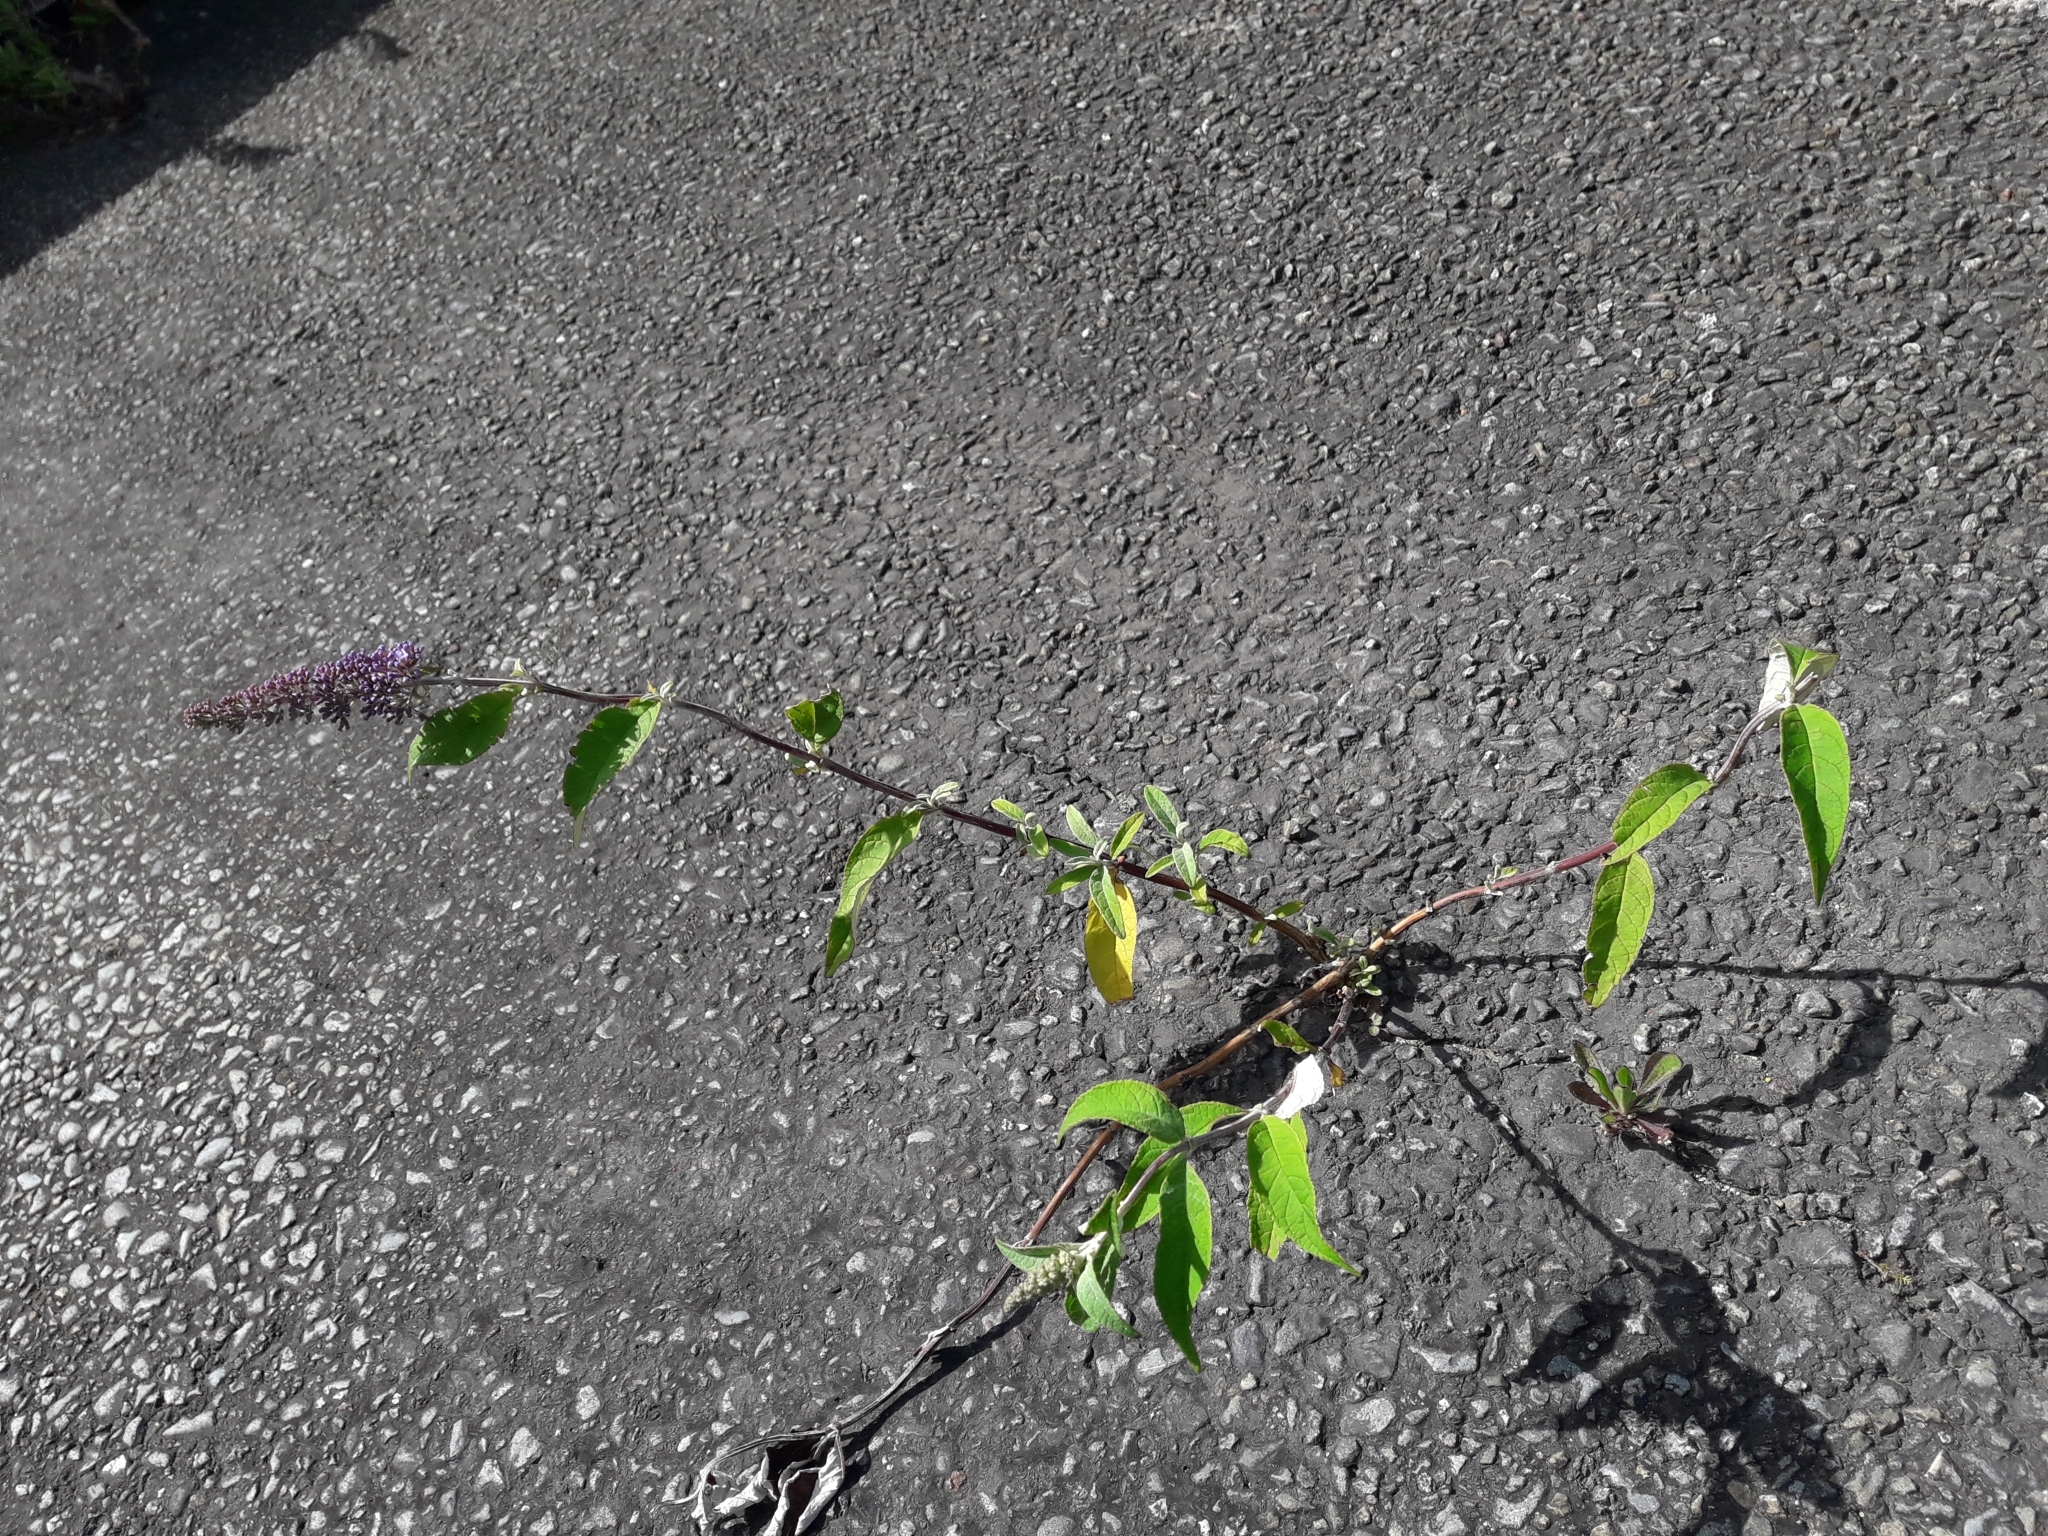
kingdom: Plantae
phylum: Tracheophyta
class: Magnoliopsida
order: Lamiales
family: Scrophulariaceae
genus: Buddleja
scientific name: Buddleja davidii
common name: Butterfly-bush
